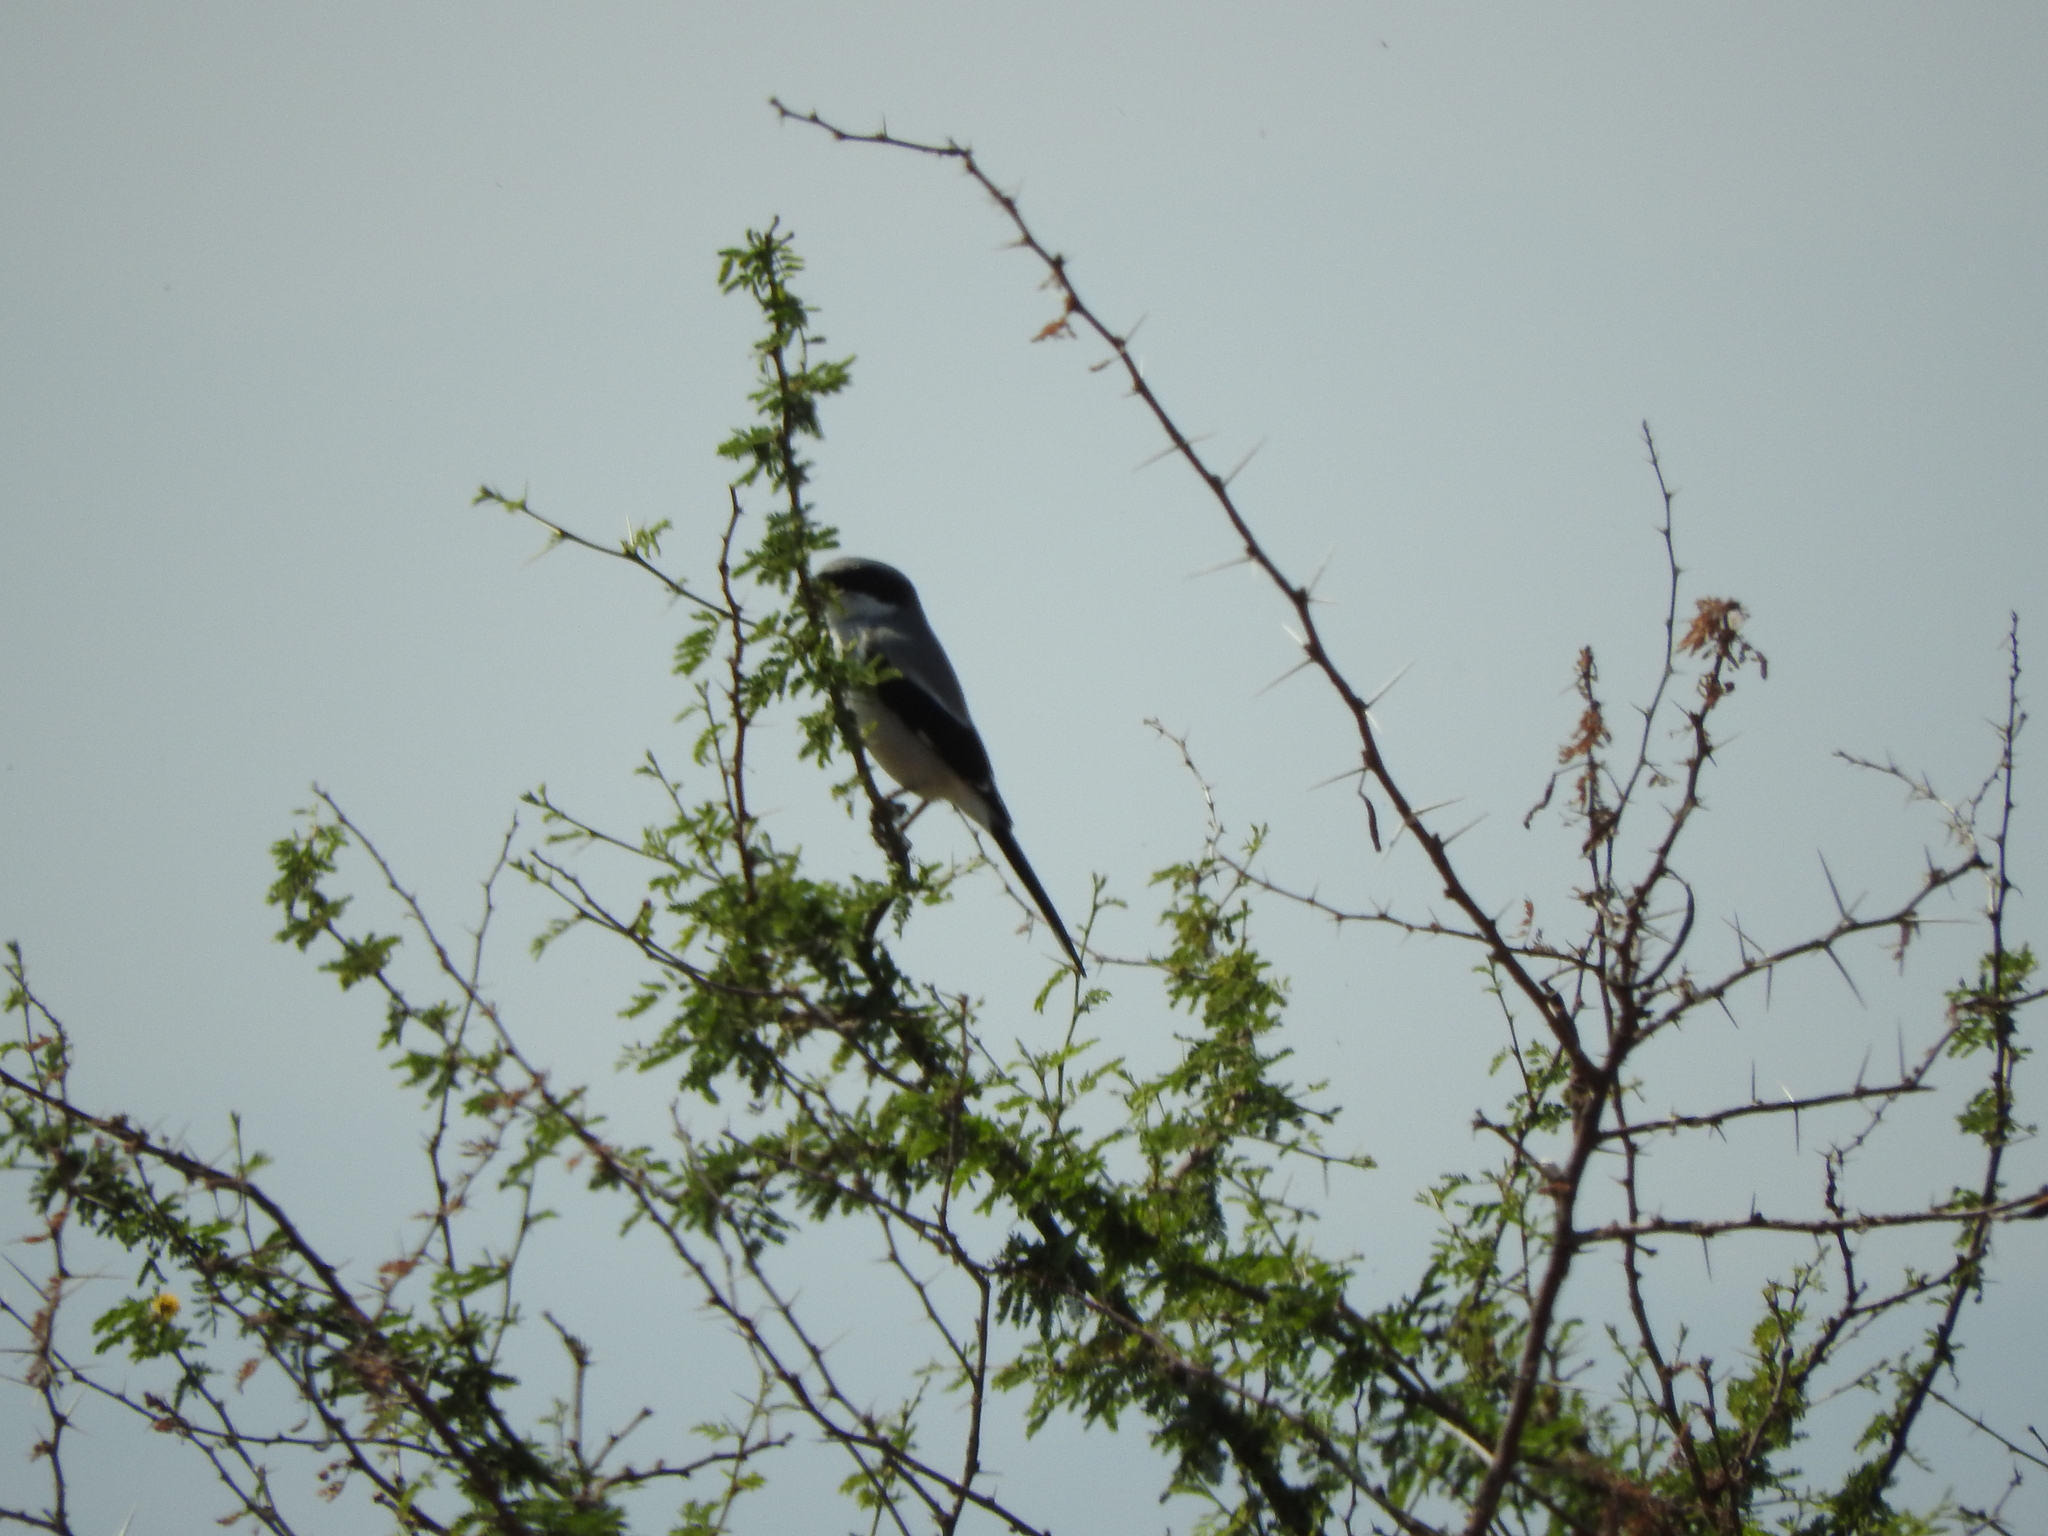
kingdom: Animalia
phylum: Chordata
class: Aves
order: Passeriformes
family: Laniidae
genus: Lanius
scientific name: Lanius ludovicianus
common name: Loggerhead shrike
